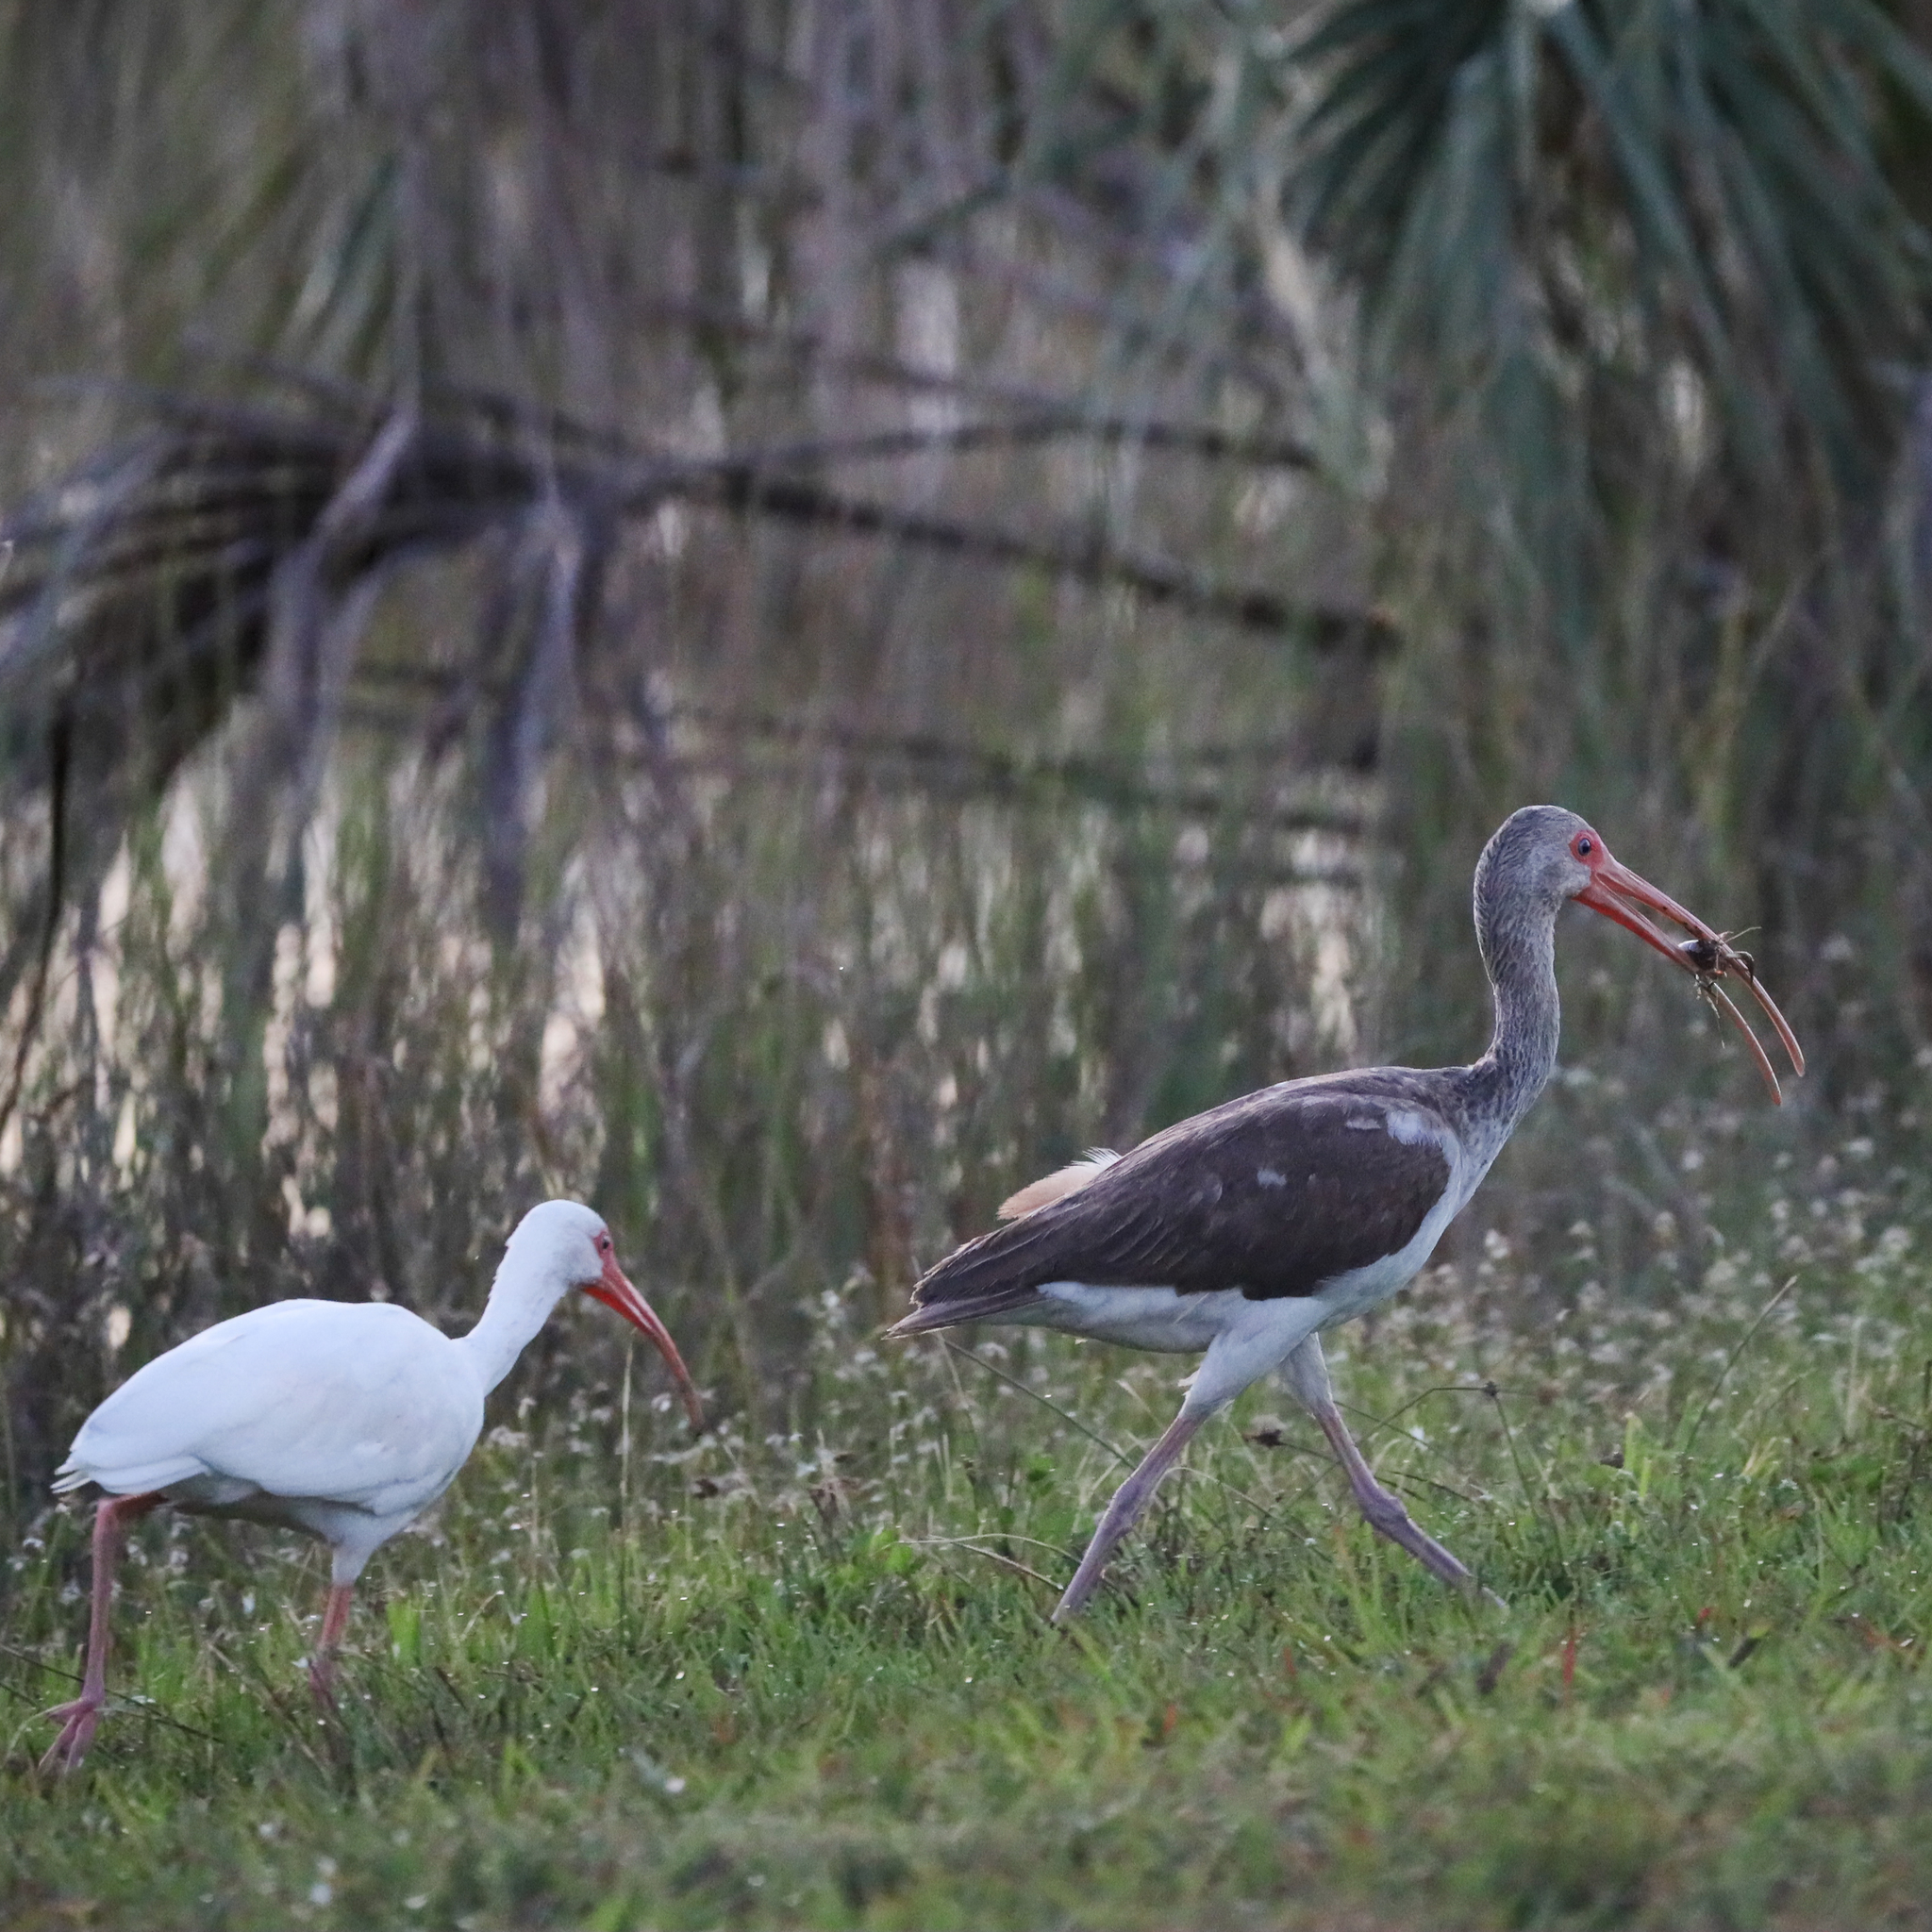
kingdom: Animalia
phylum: Chordata
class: Aves
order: Pelecaniformes
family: Threskiornithidae
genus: Eudocimus
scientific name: Eudocimus albus
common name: White ibis
